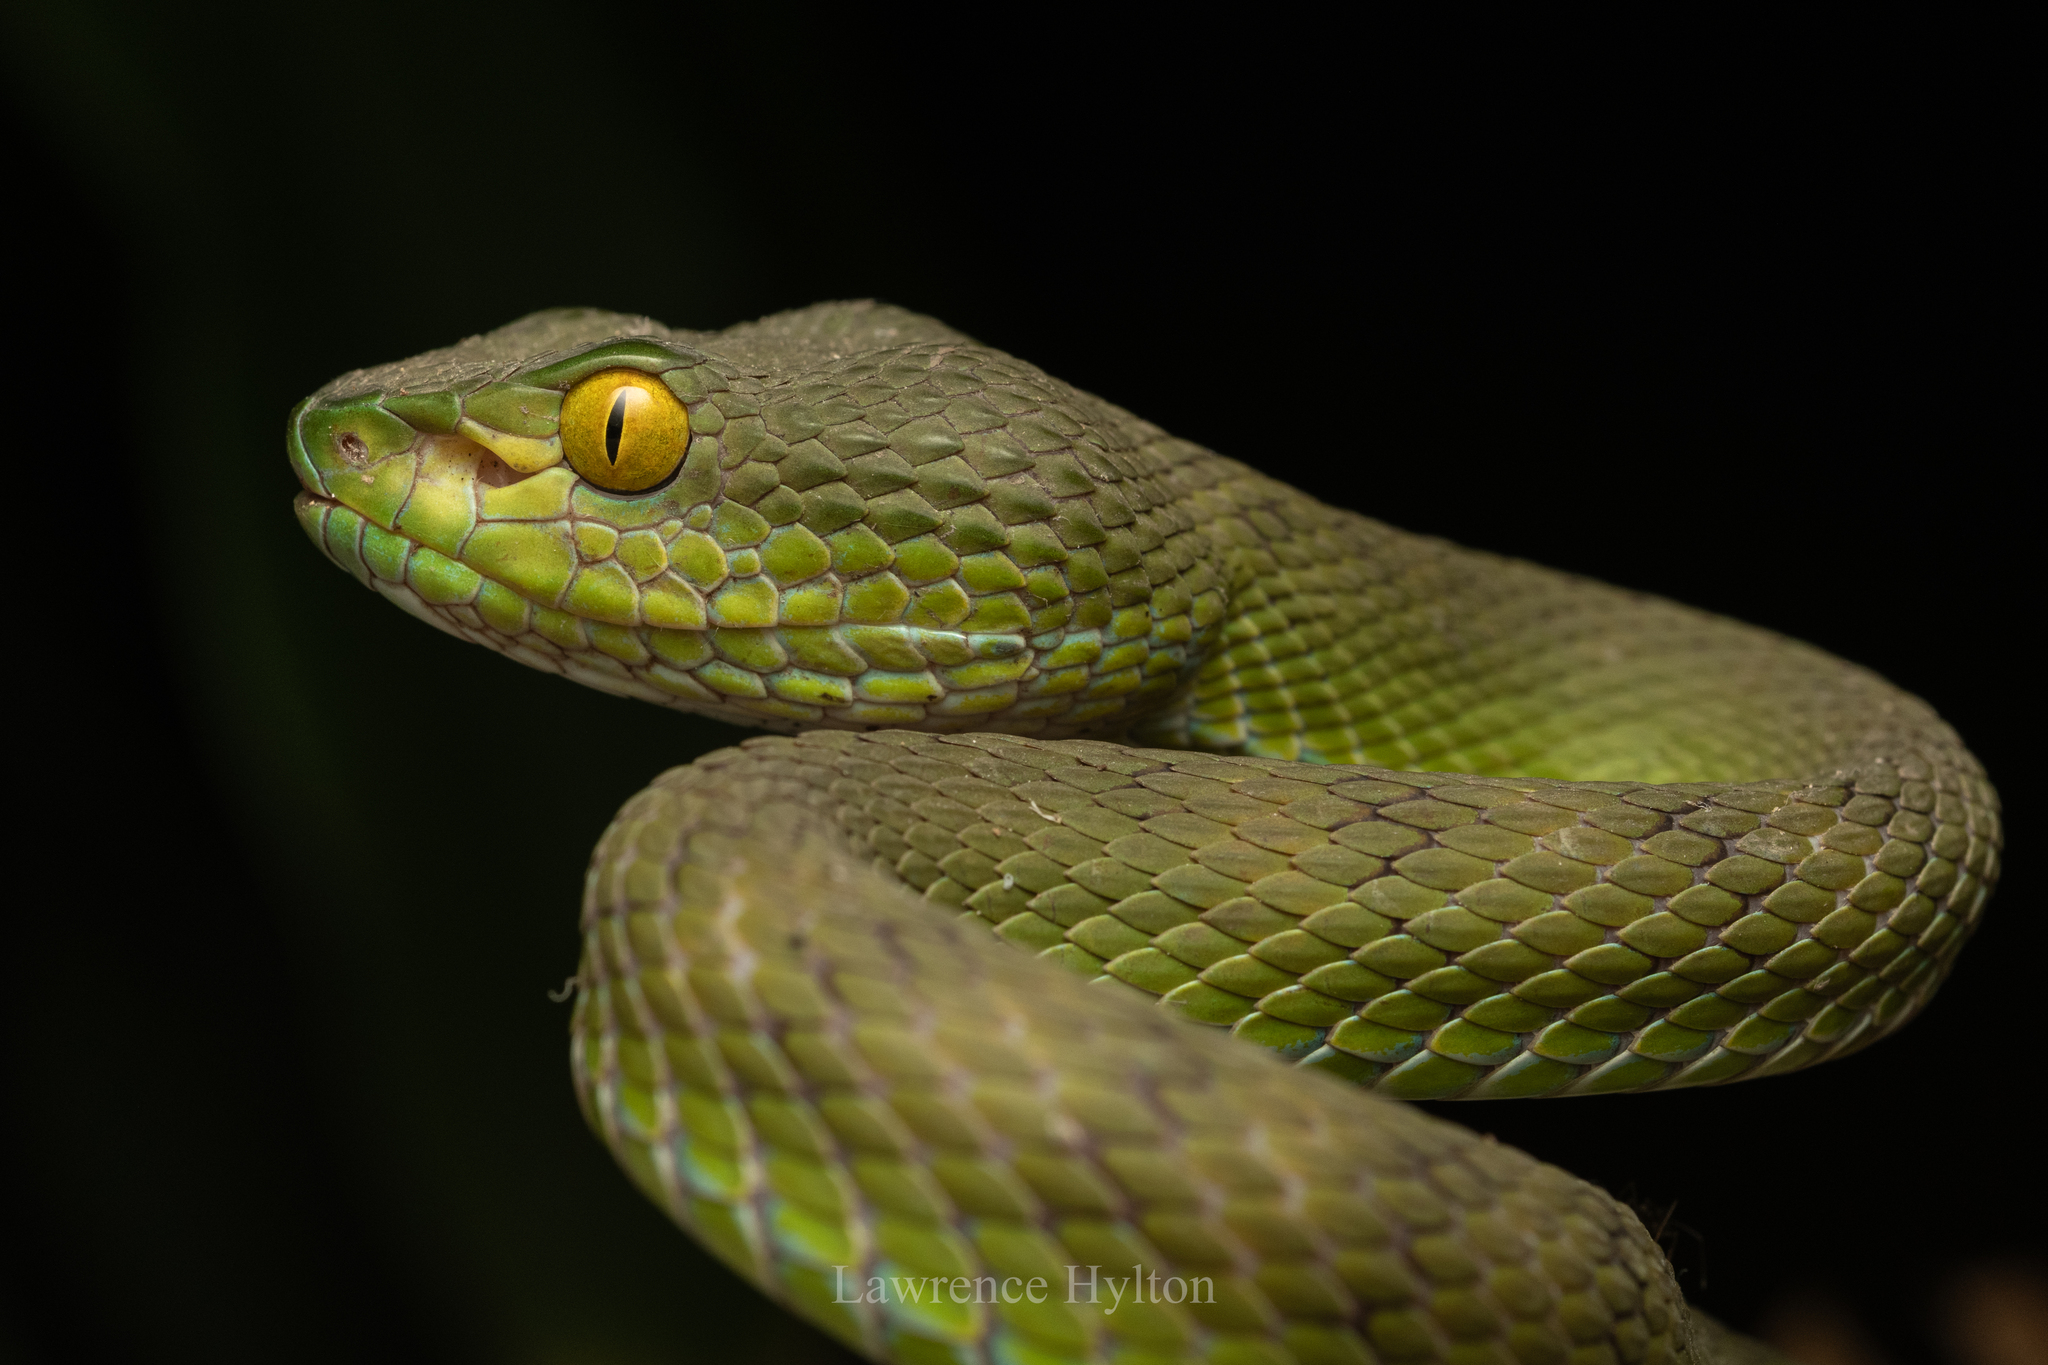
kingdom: Animalia
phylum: Chordata
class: Squamata
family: Viperidae
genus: Trimeresurus
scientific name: Trimeresurus macrops
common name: Kramer's pit viper
